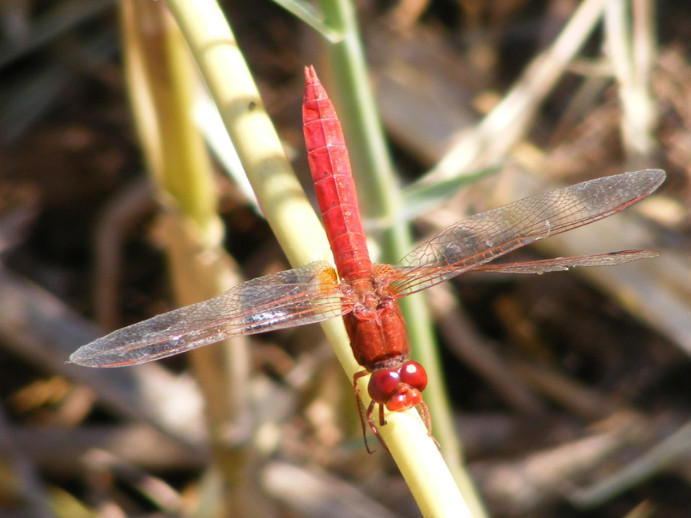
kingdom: Animalia
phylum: Arthropoda
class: Insecta
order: Odonata
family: Libellulidae
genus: Crocothemis
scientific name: Crocothemis erythraea
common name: Scarlet dragonfly
